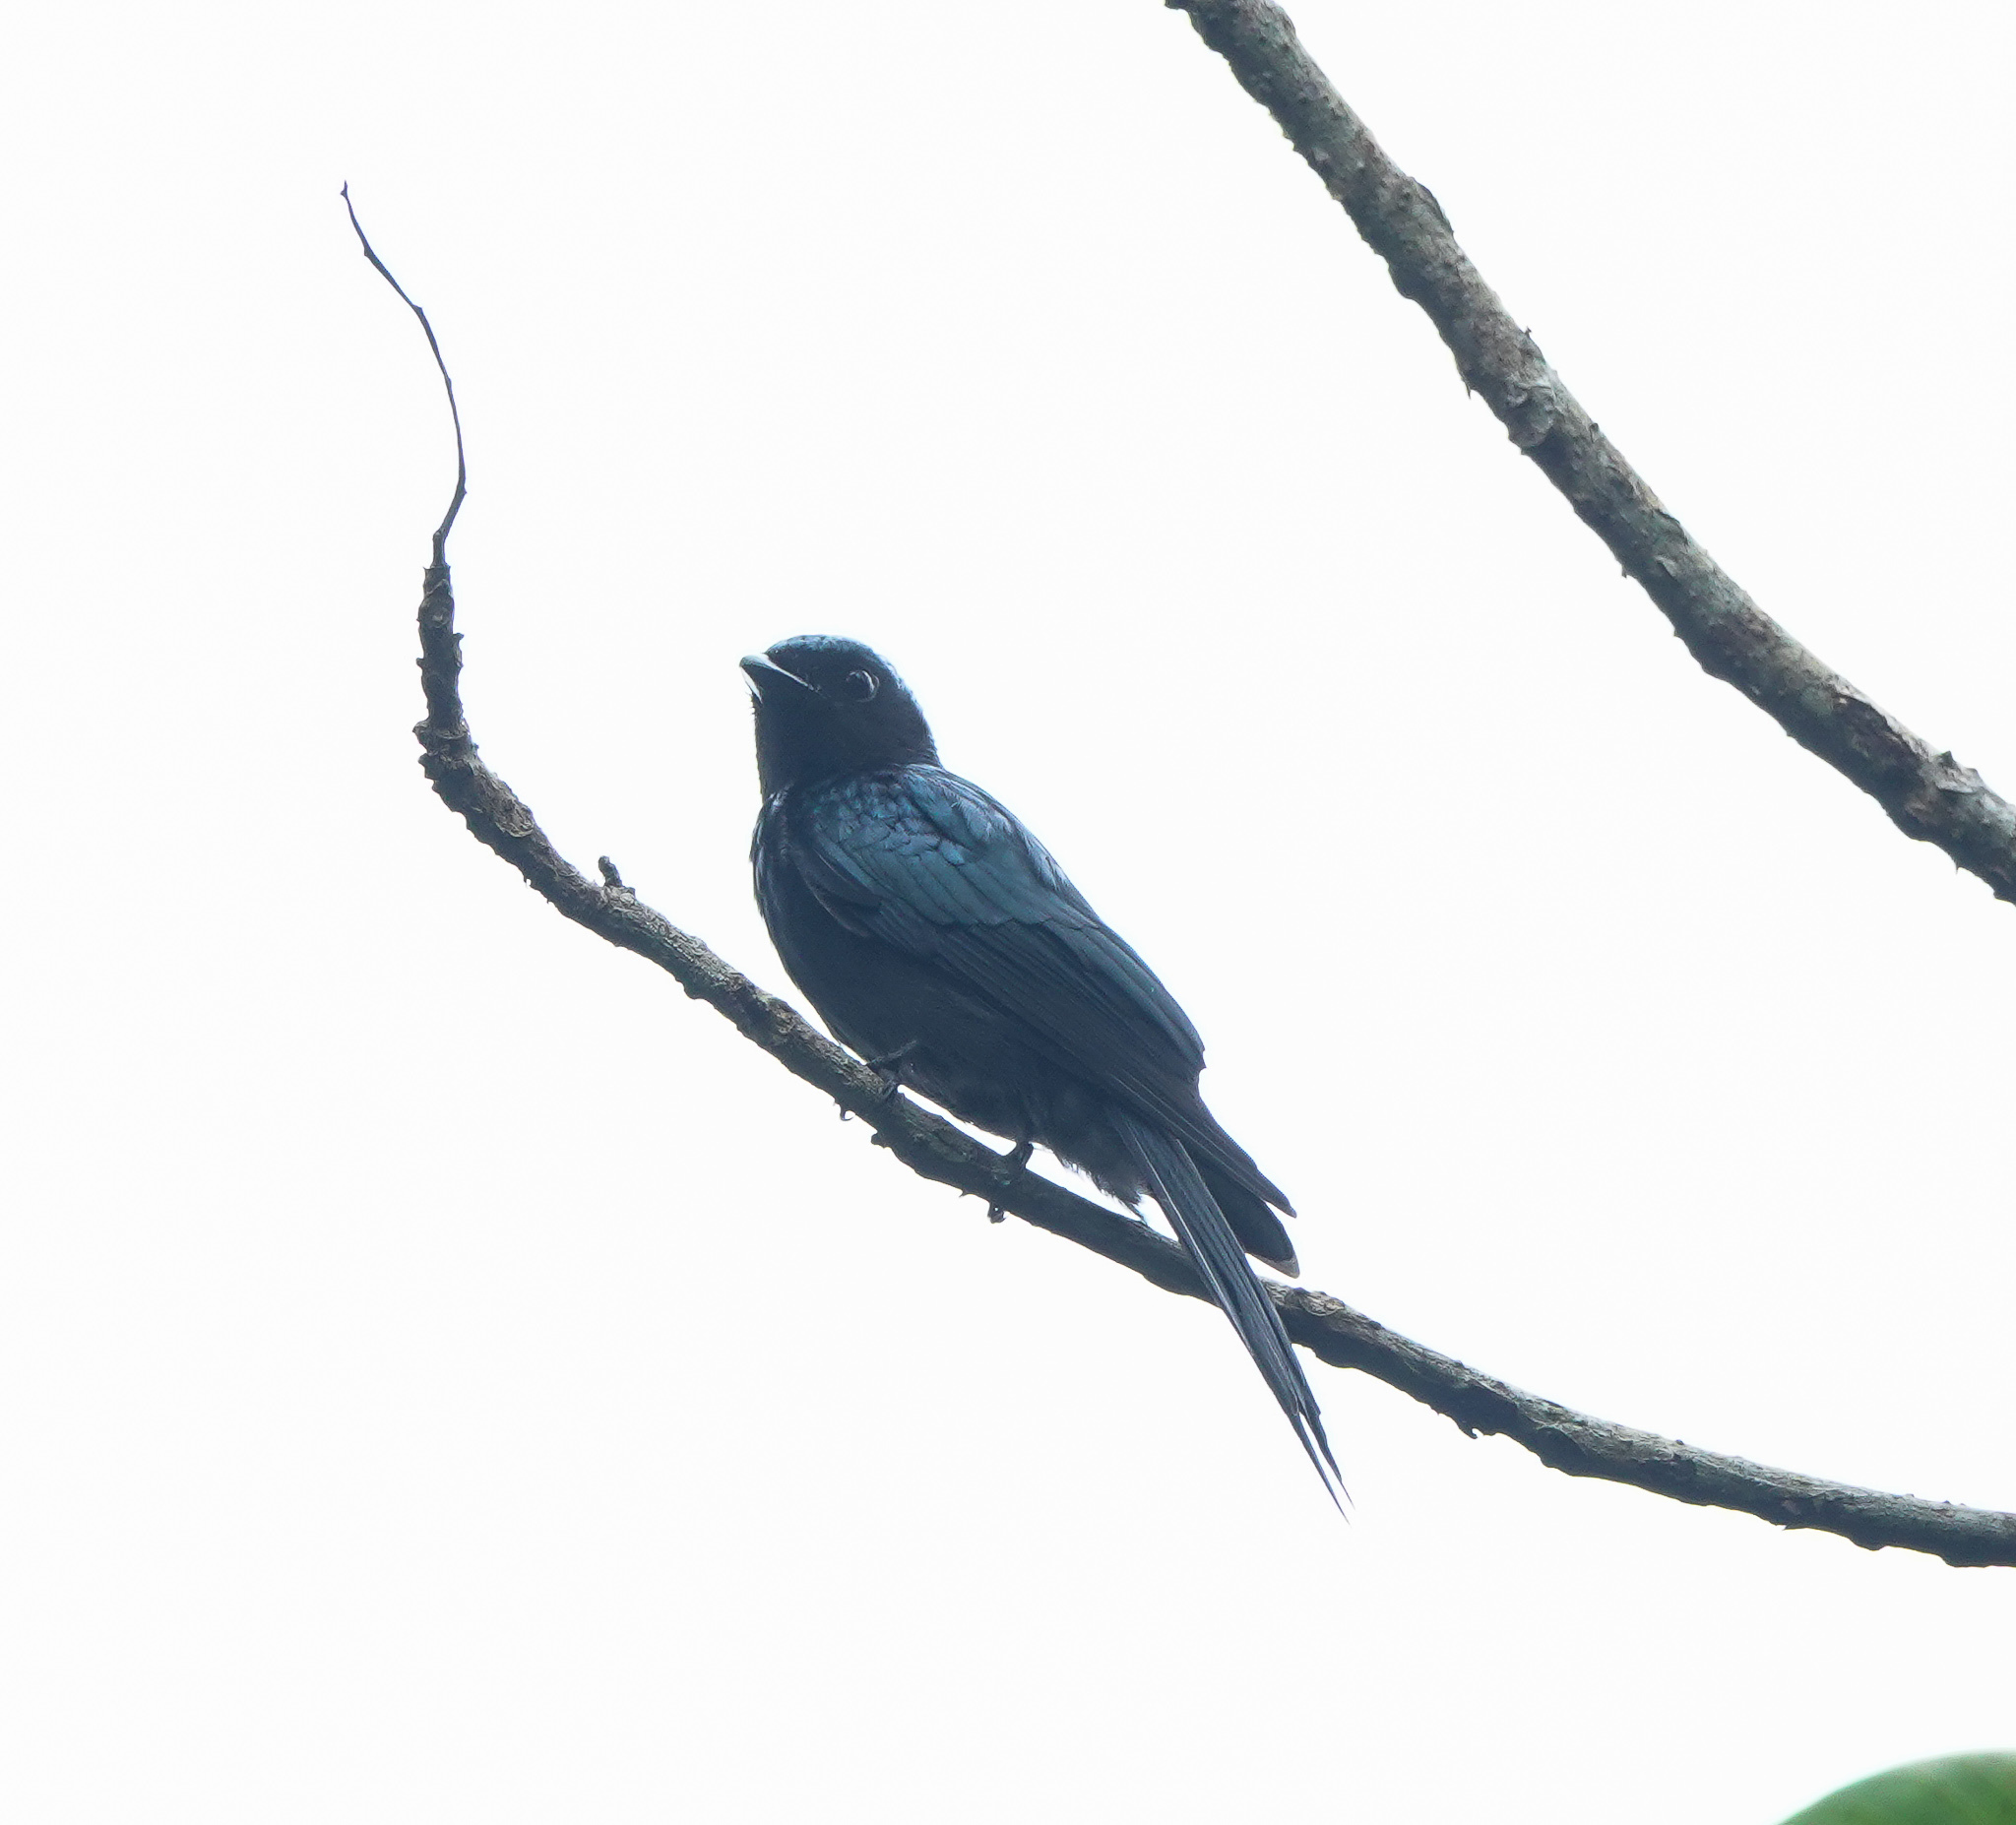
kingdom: Animalia
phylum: Chordata
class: Aves
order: Passeriformes
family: Dicruridae
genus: Dicrurus
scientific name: Dicrurus aeneus
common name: Bronzed drongo
